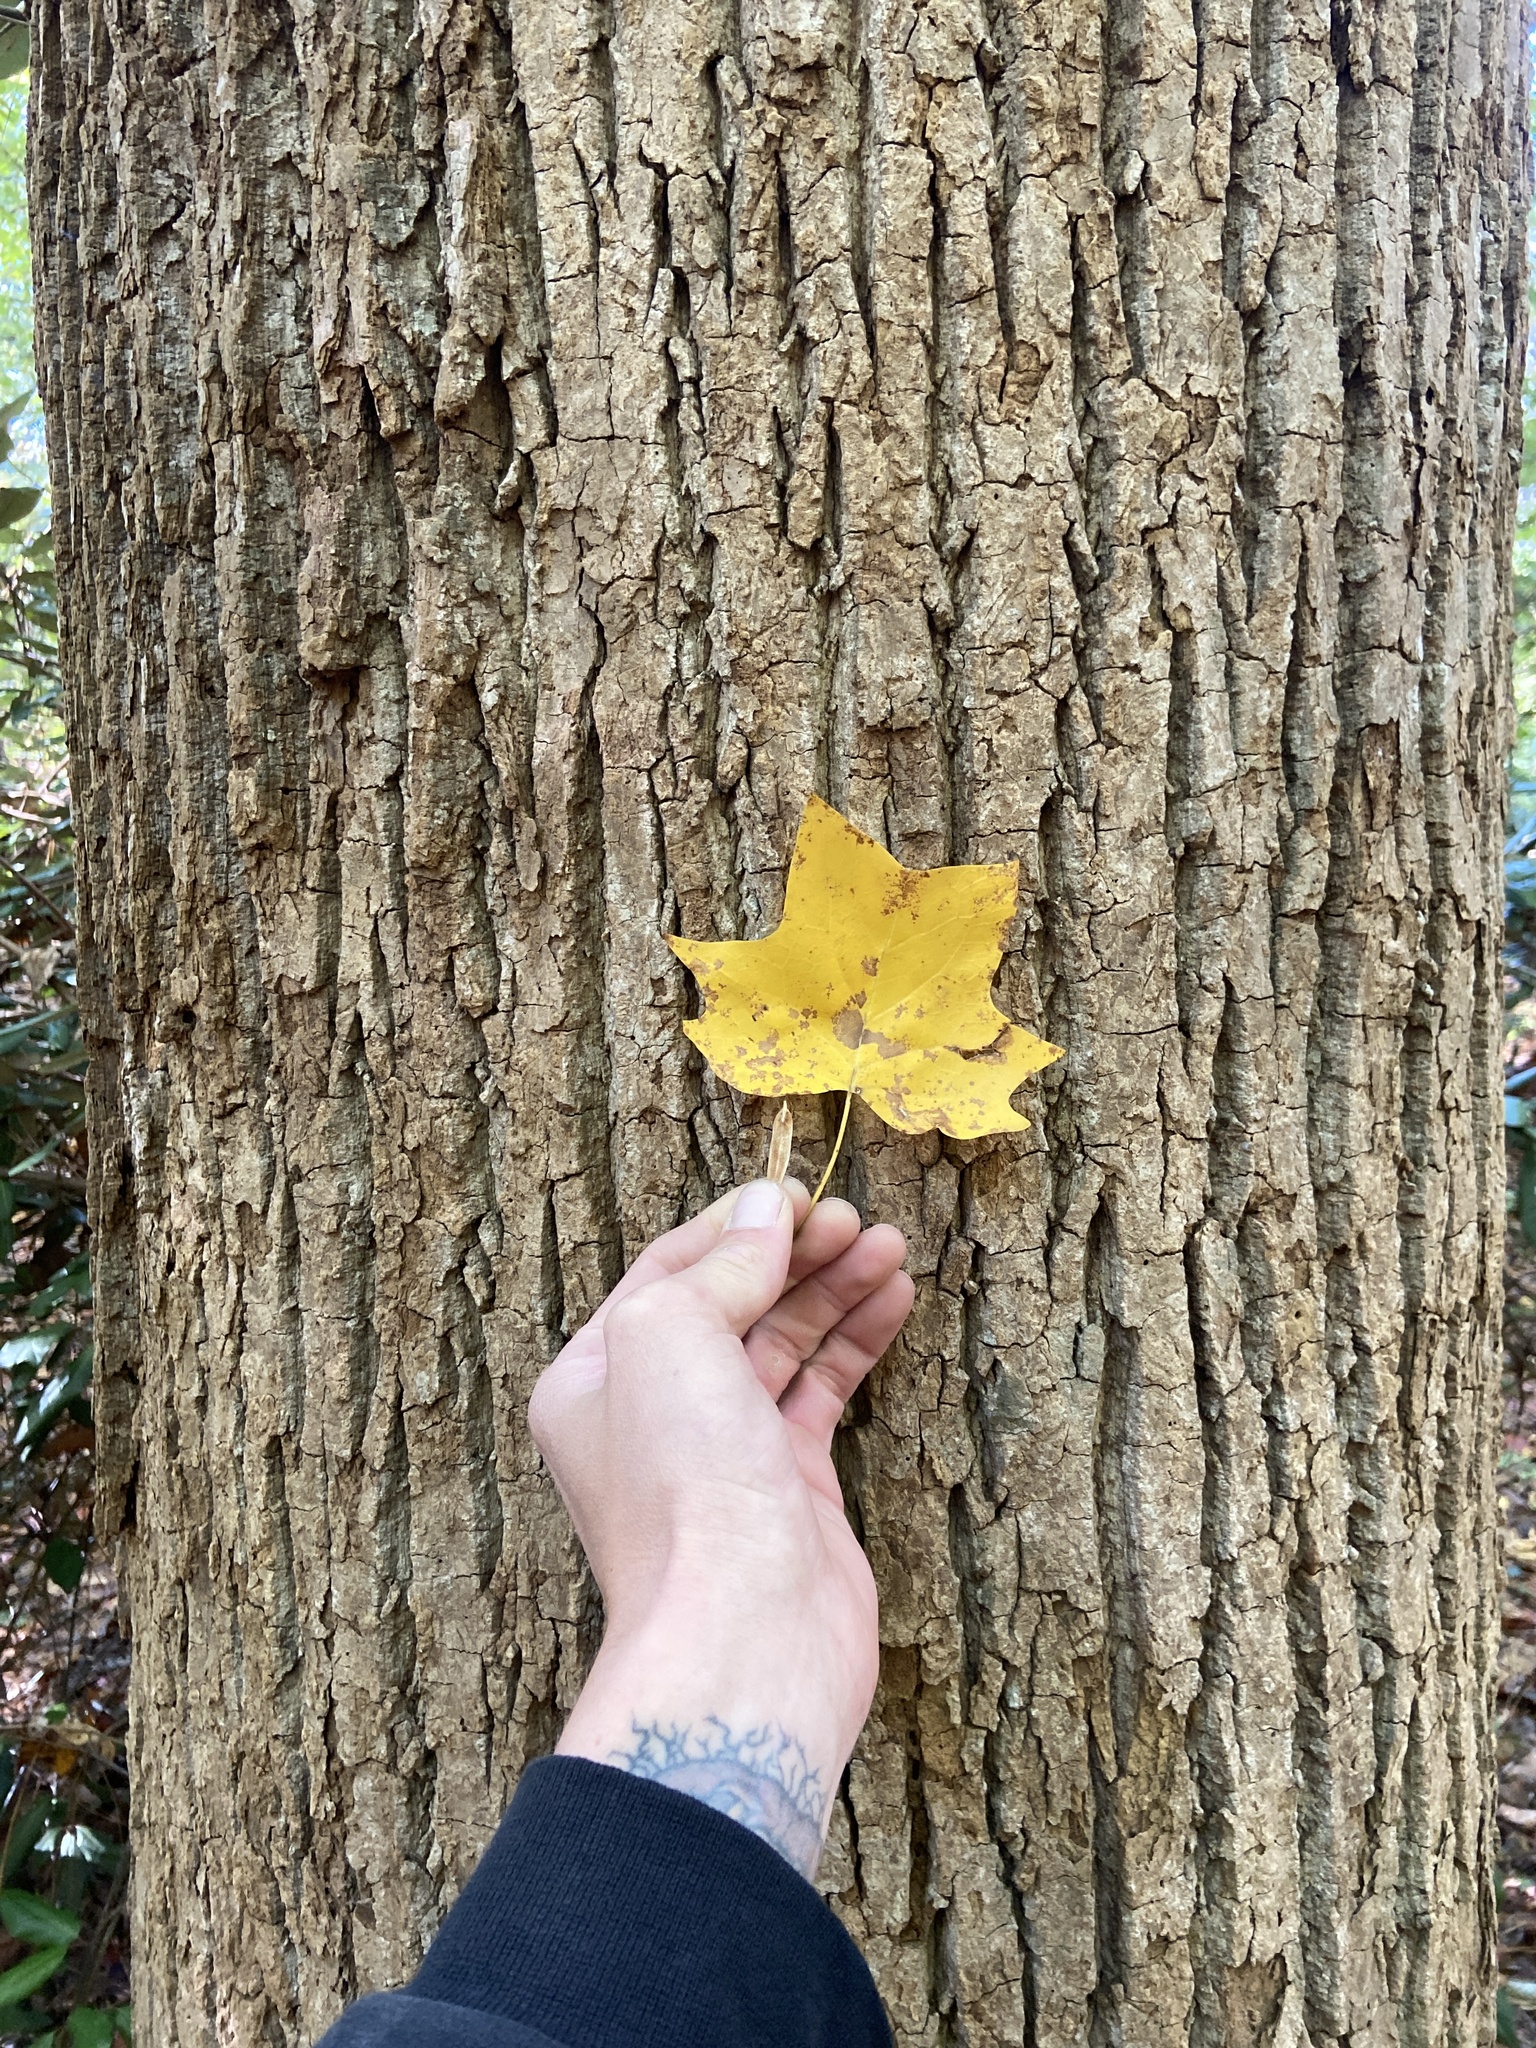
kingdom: Plantae
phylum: Tracheophyta
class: Magnoliopsida
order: Magnoliales
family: Magnoliaceae
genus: Liriodendron
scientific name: Liriodendron tulipifera
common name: Tulip tree
